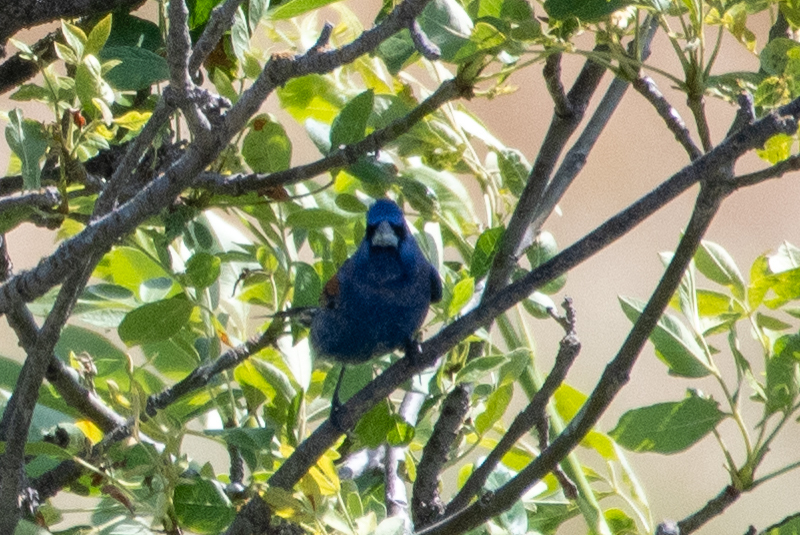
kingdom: Animalia
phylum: Chordata
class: Aves
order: Passeriformes
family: Cardinalidae
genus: Passerina
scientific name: Passerina caerulea
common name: Blue grosbeak
